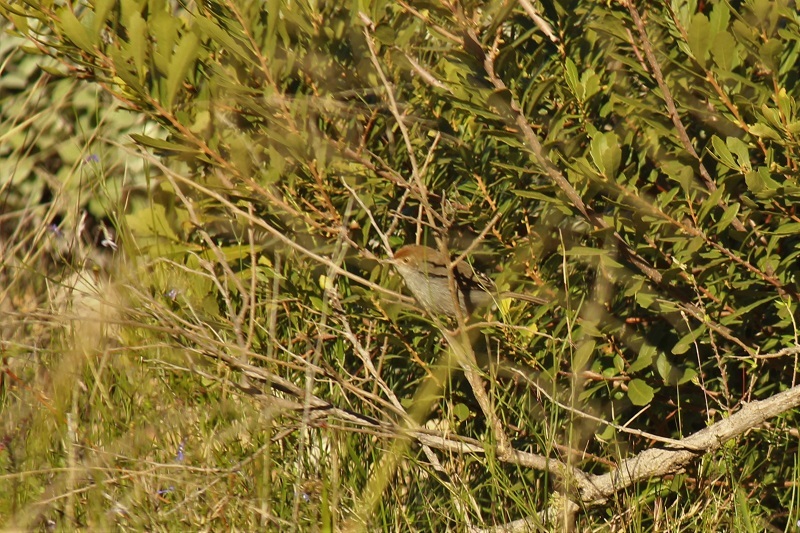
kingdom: Animalia
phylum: Chordata
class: Aves
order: Passeriformes
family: Cisticolidae
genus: Cisticola
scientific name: Cisticola fulvicapilla
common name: Neddicky
